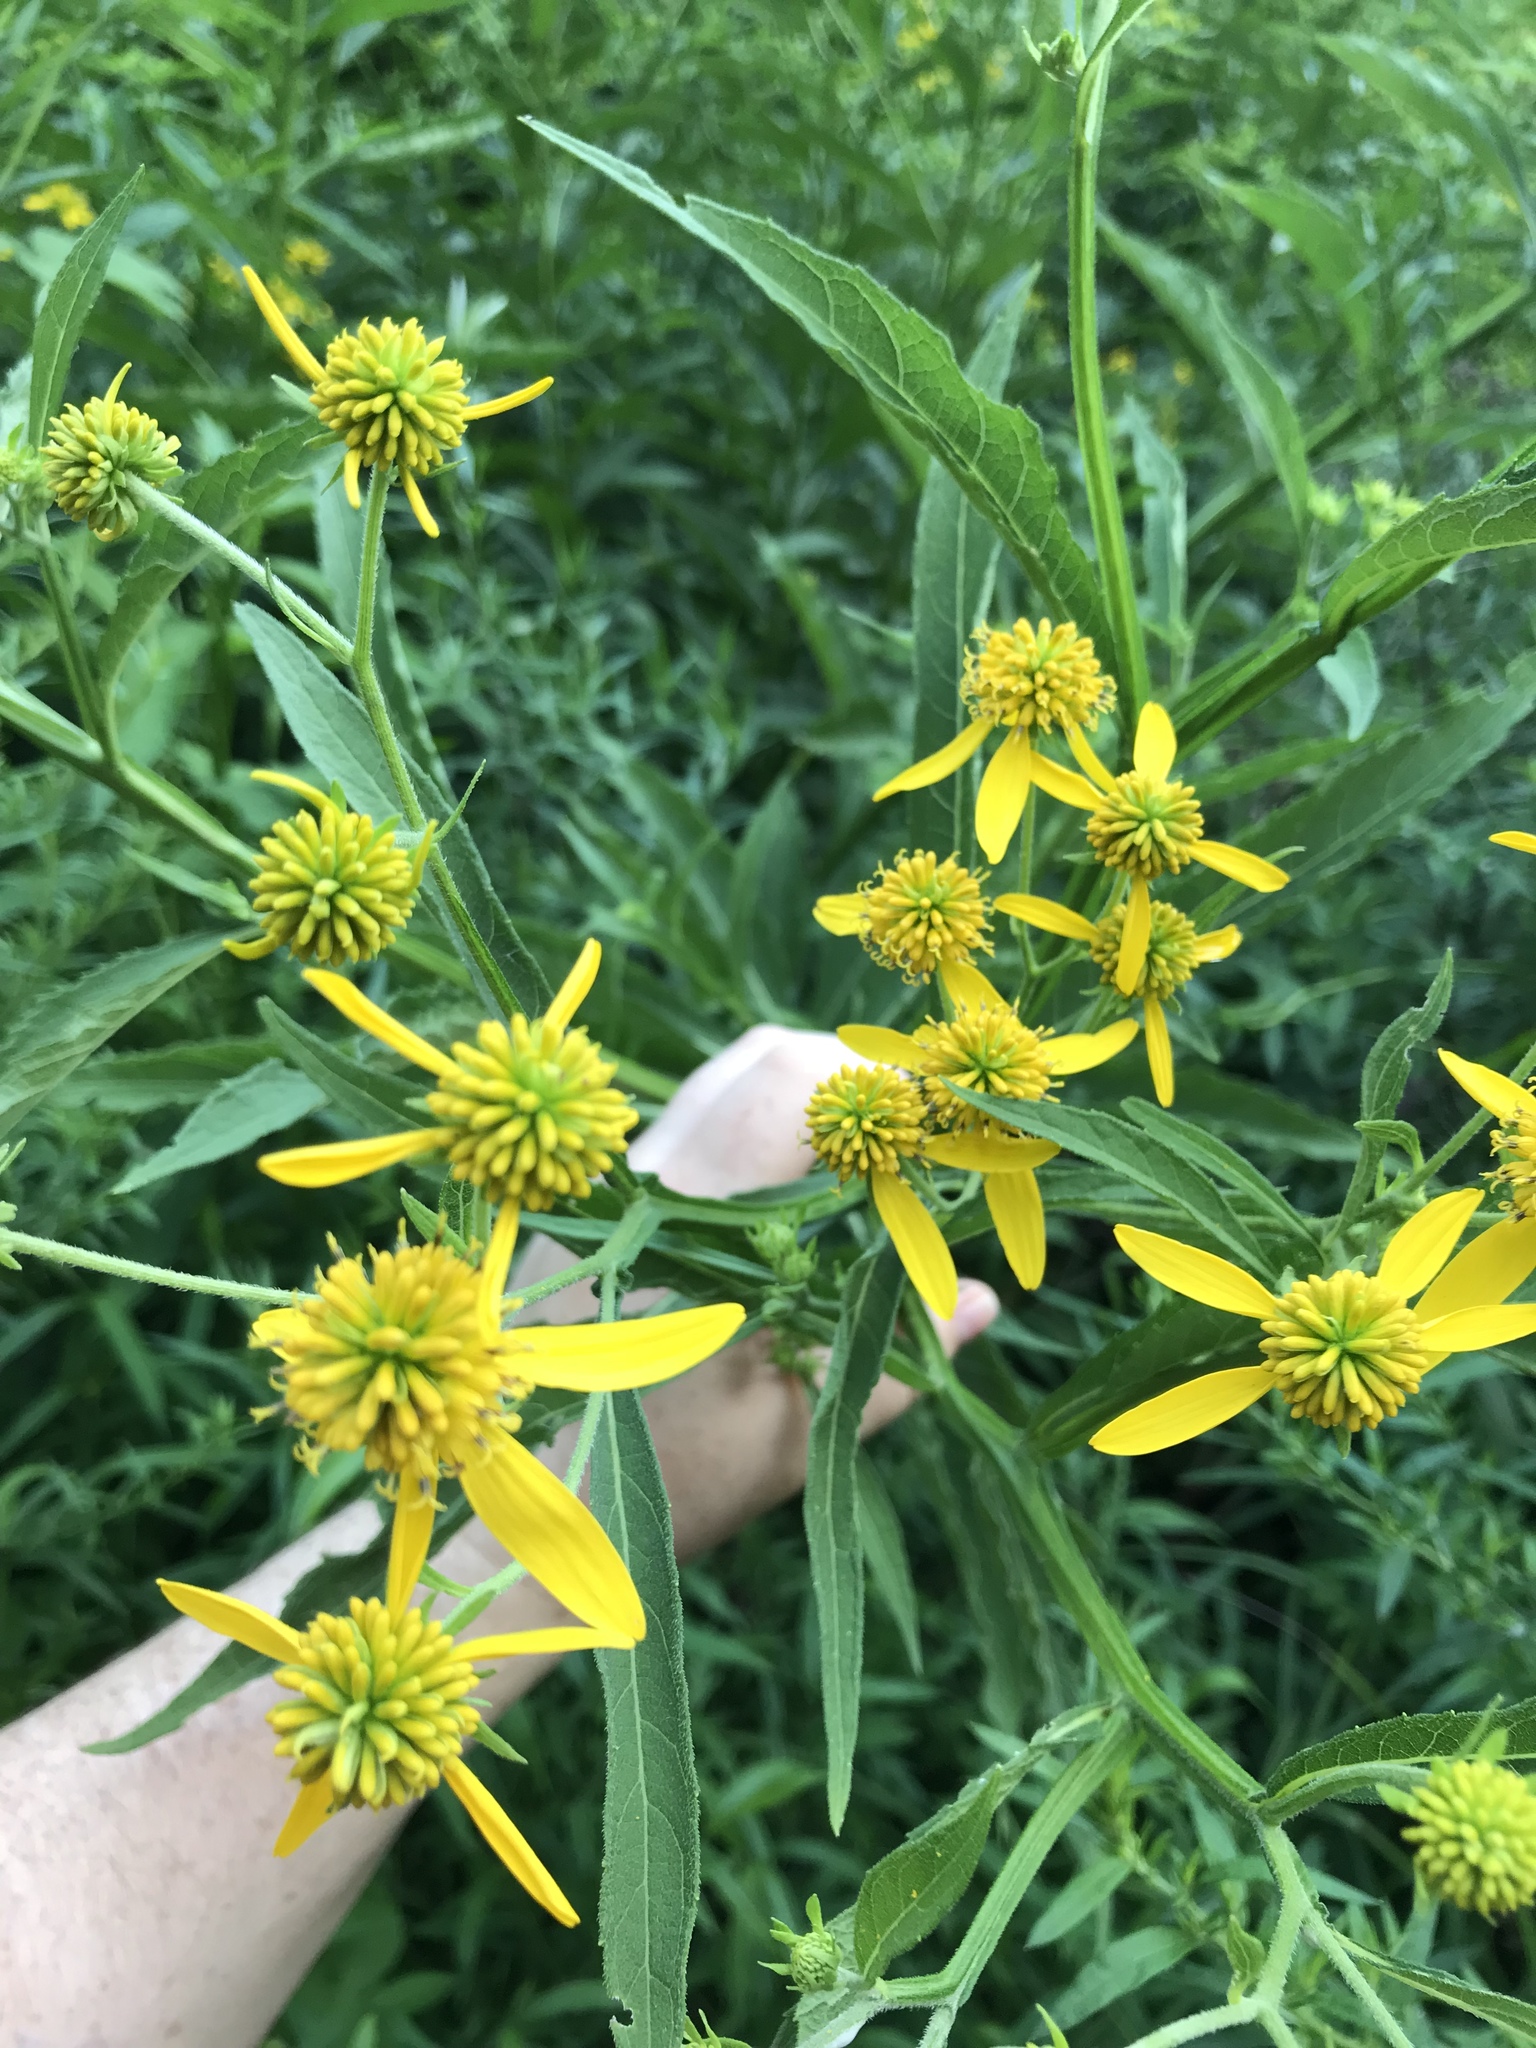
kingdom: Plantae
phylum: Tracheophyta
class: Magnoliopsida
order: Asterales
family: Asteraceae
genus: Verbesina
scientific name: Verbesina alternifolia
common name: Wingstem
